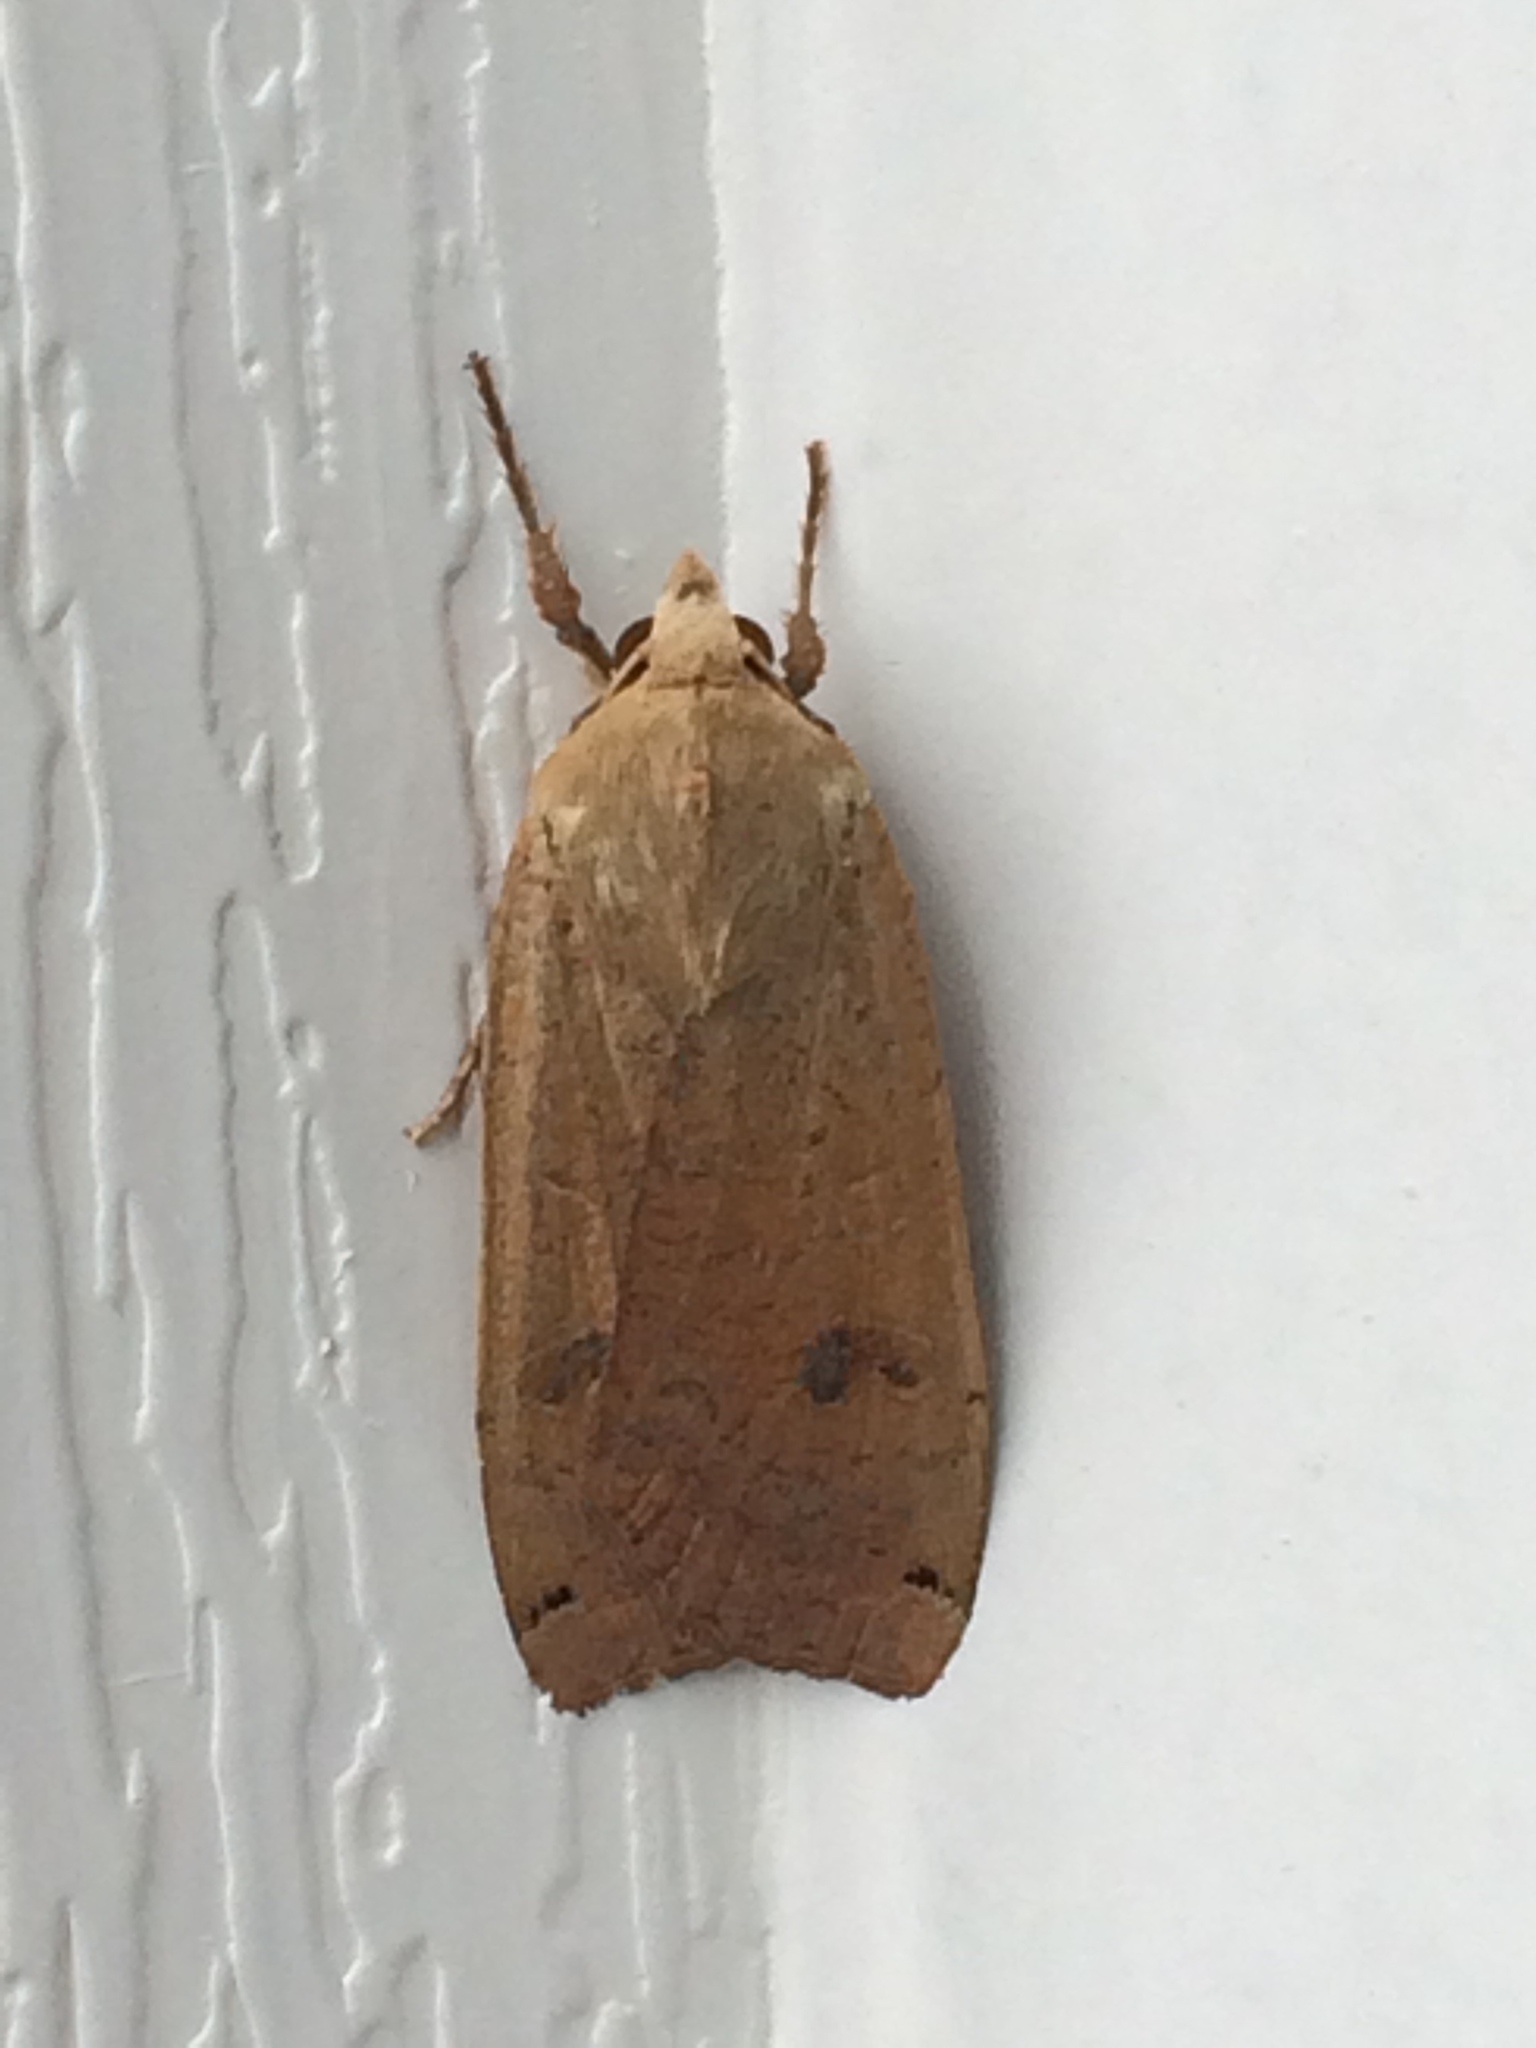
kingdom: Animalia
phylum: Arthropoda
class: Insecta
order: Lepidoptera
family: Noctuidae
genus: Noctua
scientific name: Noctua pronuba
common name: Large yellow underwing
